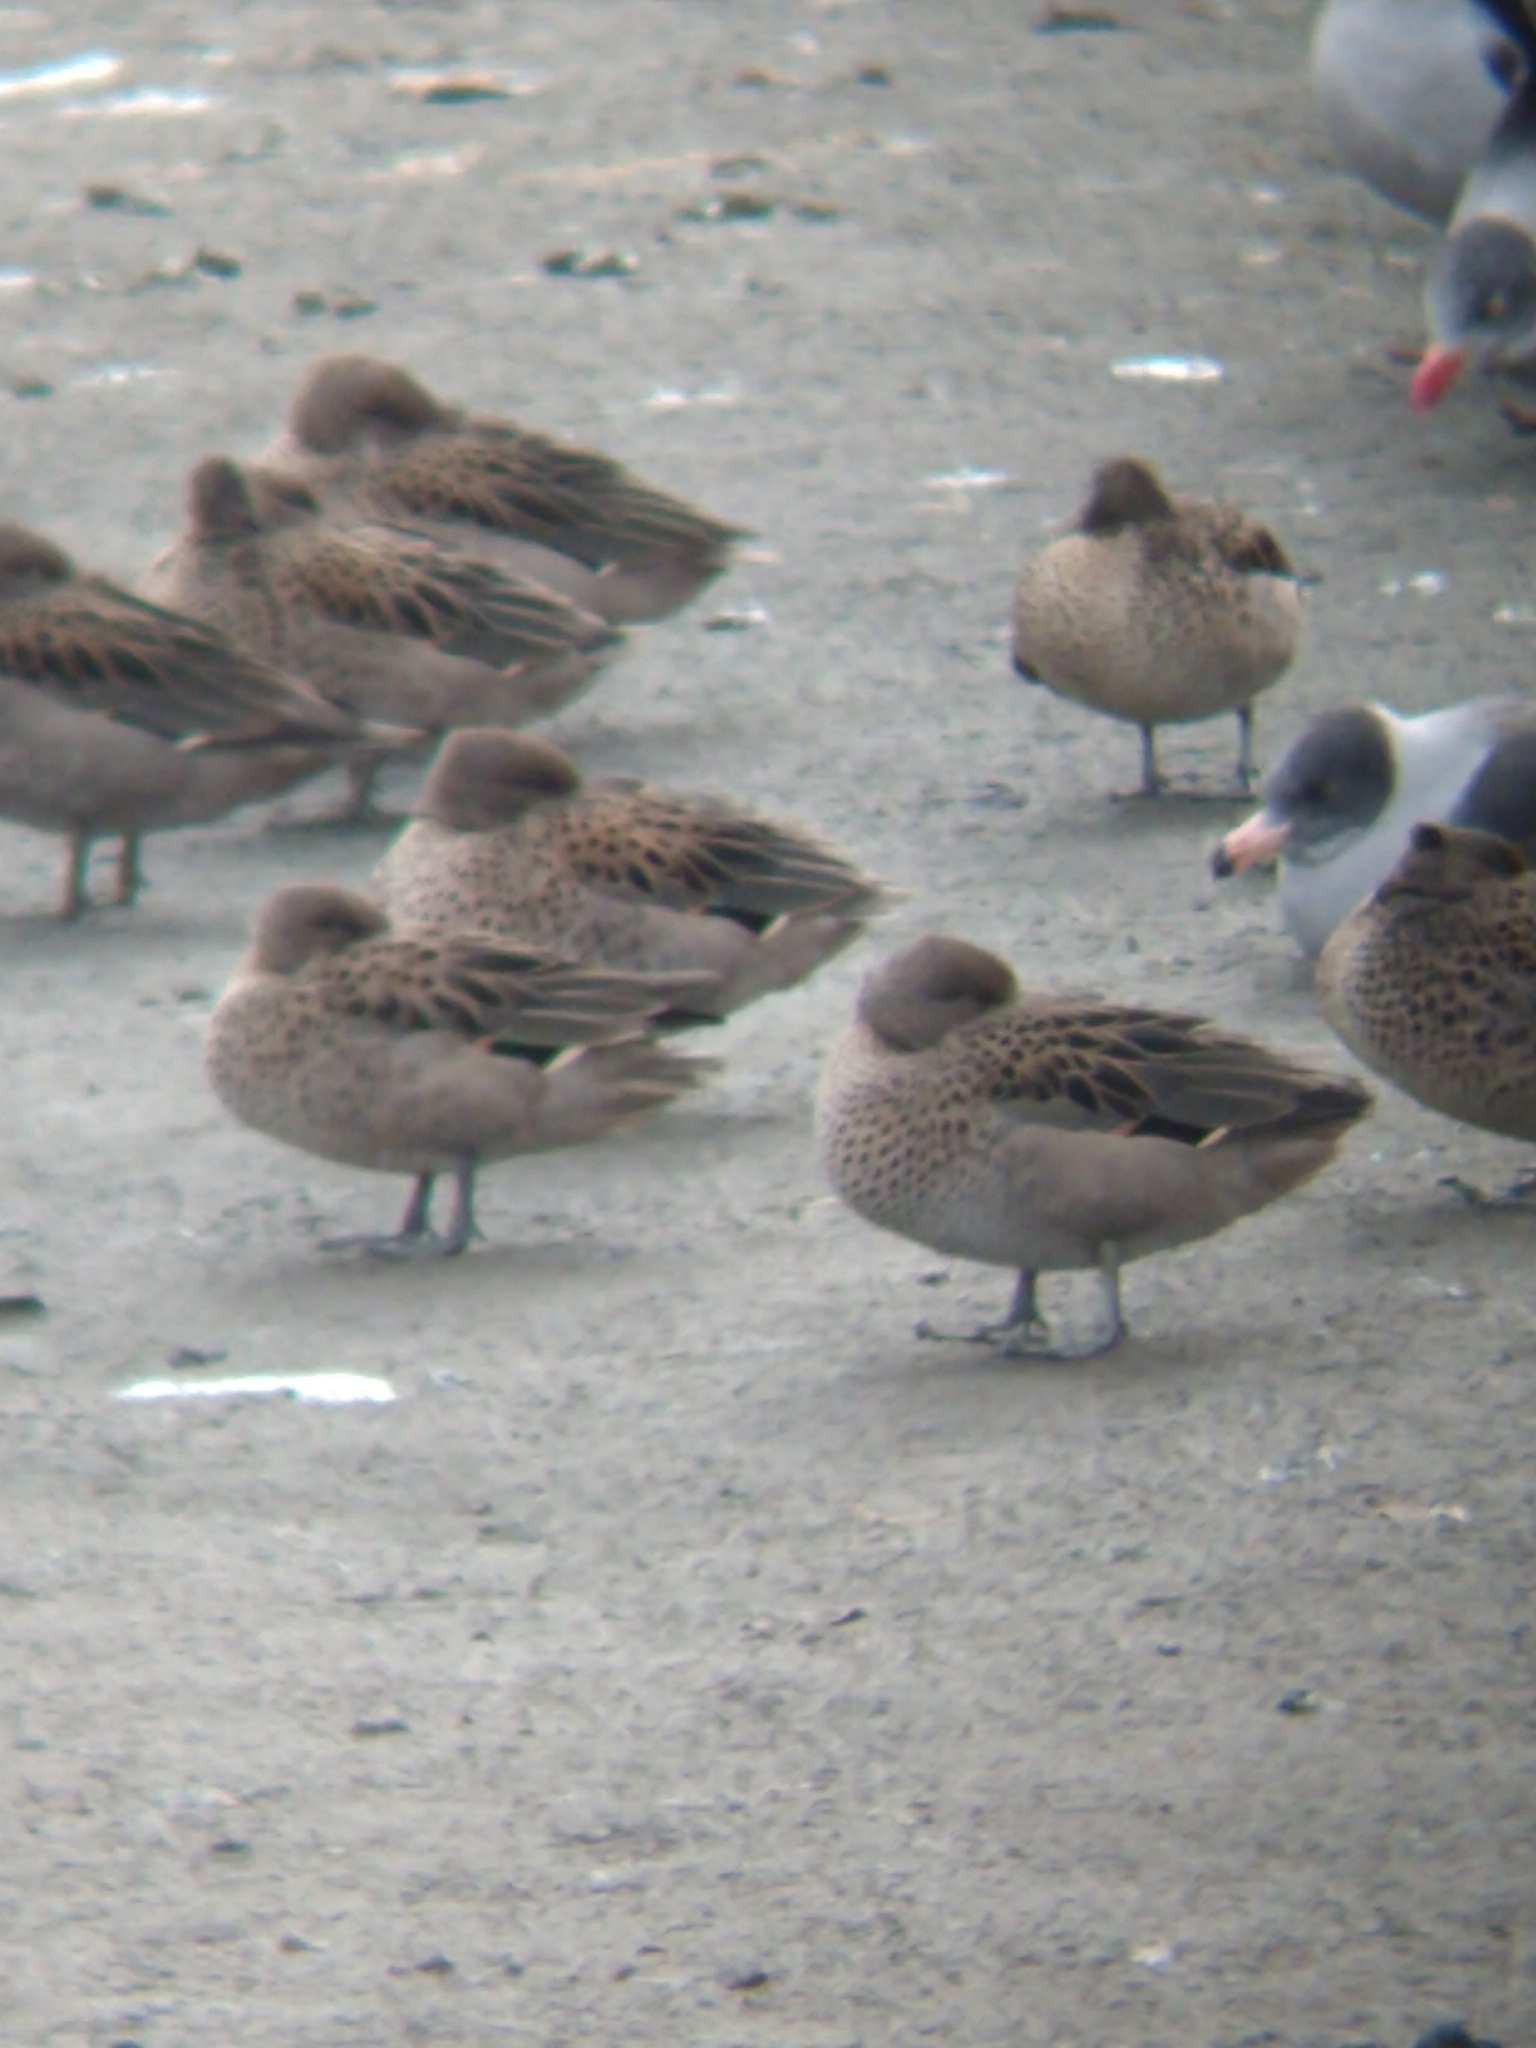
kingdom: Animalia
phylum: Chordata
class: Aves
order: Anseriformes
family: Anatidae
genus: Anas
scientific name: Anas flavirostris
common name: Yellow-billed teal
